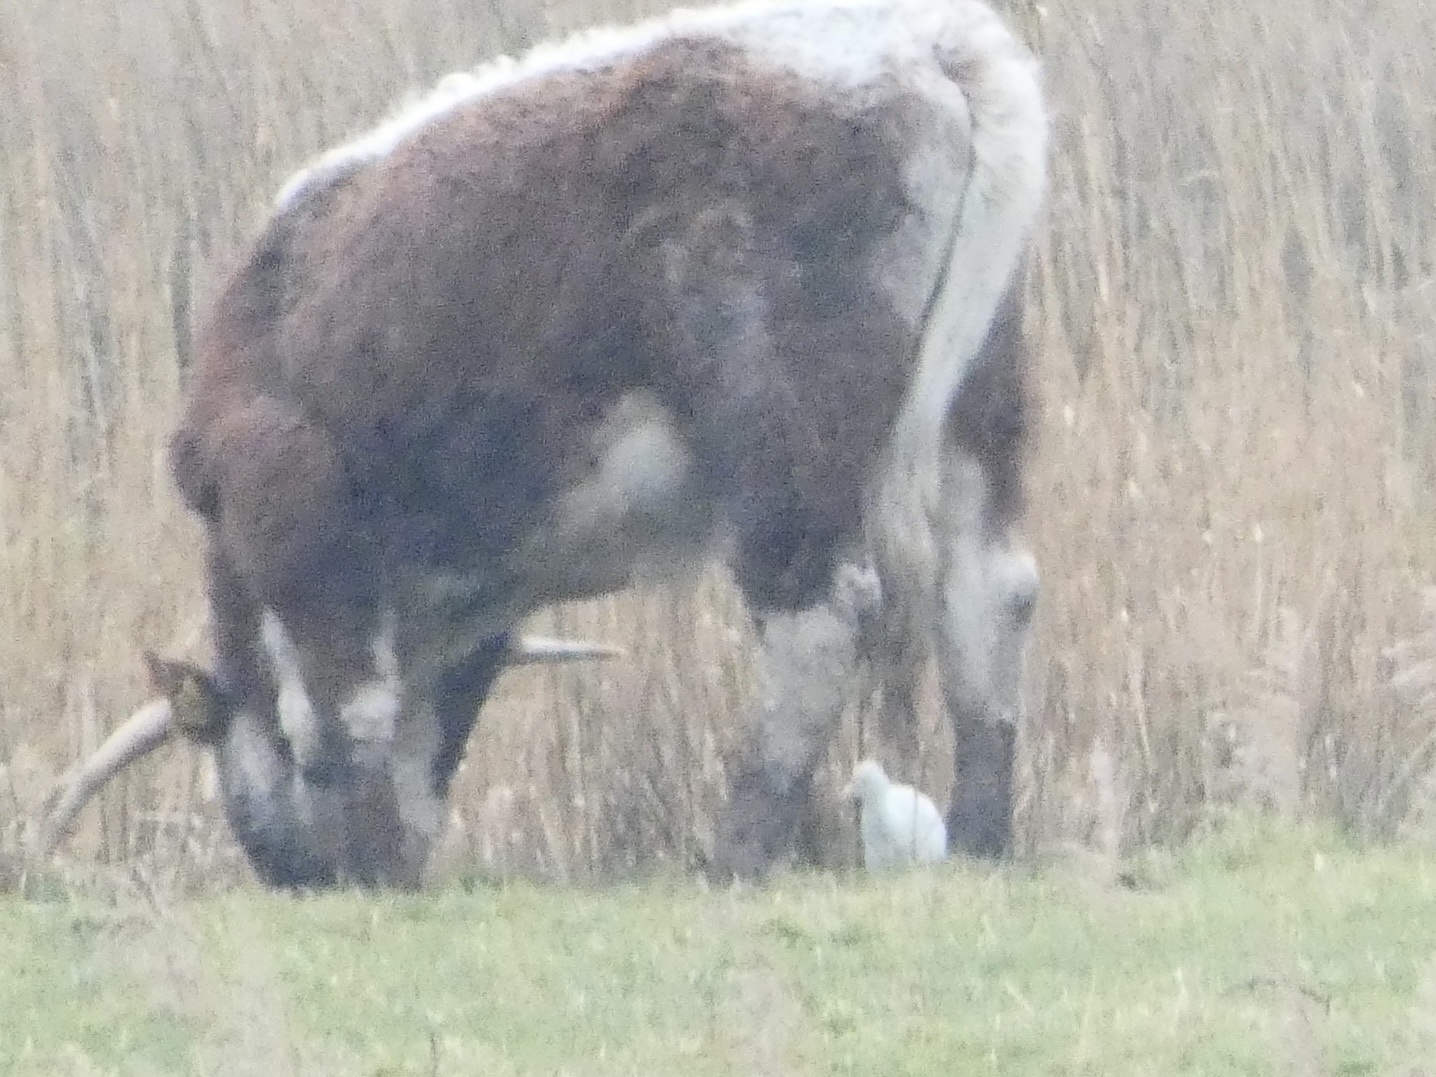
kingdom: Animalia
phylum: Chordata
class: Aves
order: Pelecaniformes
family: Ardeidae
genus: Bubulcus
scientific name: Bubulcus ibis
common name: Cattle egret
